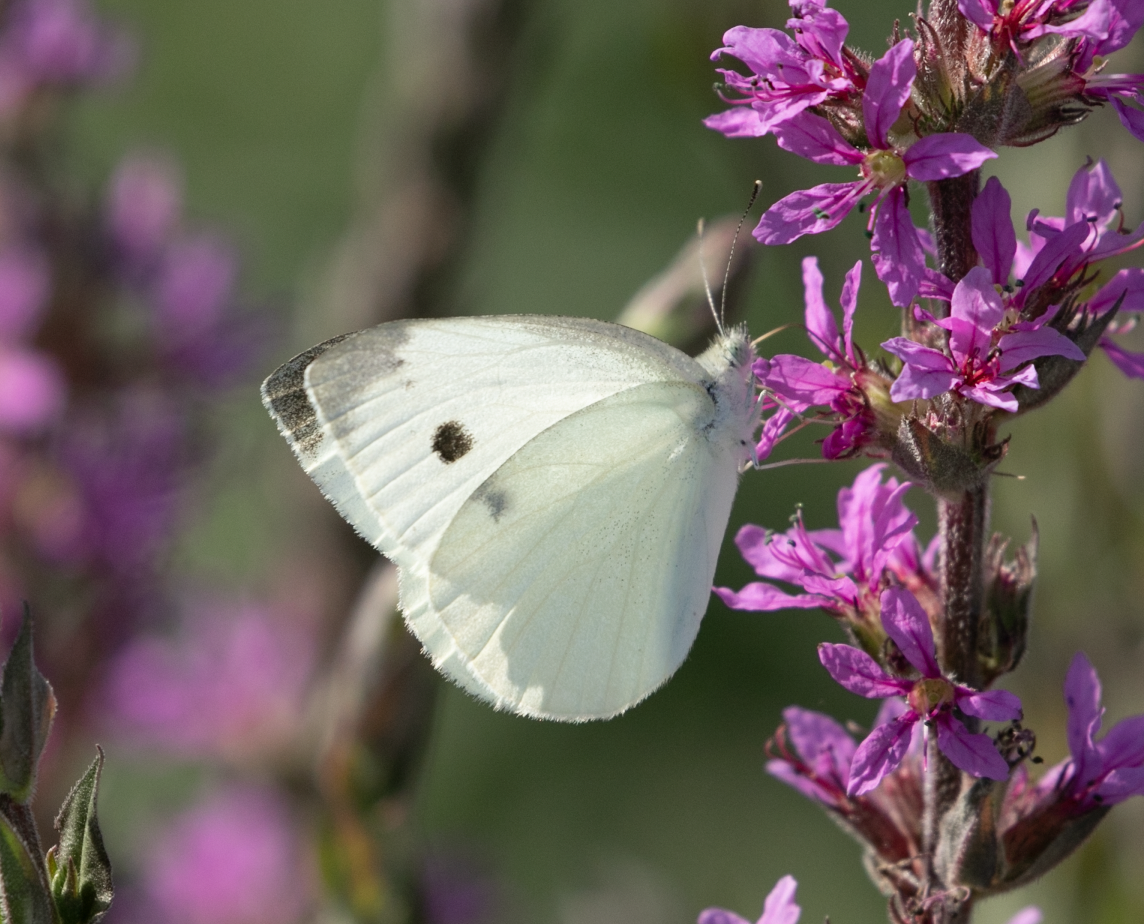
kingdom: Animalia
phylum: Arthropoda
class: Insecta
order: Lepidoptera
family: Pieridae
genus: Pieris
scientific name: Pieris rapae
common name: Small white
